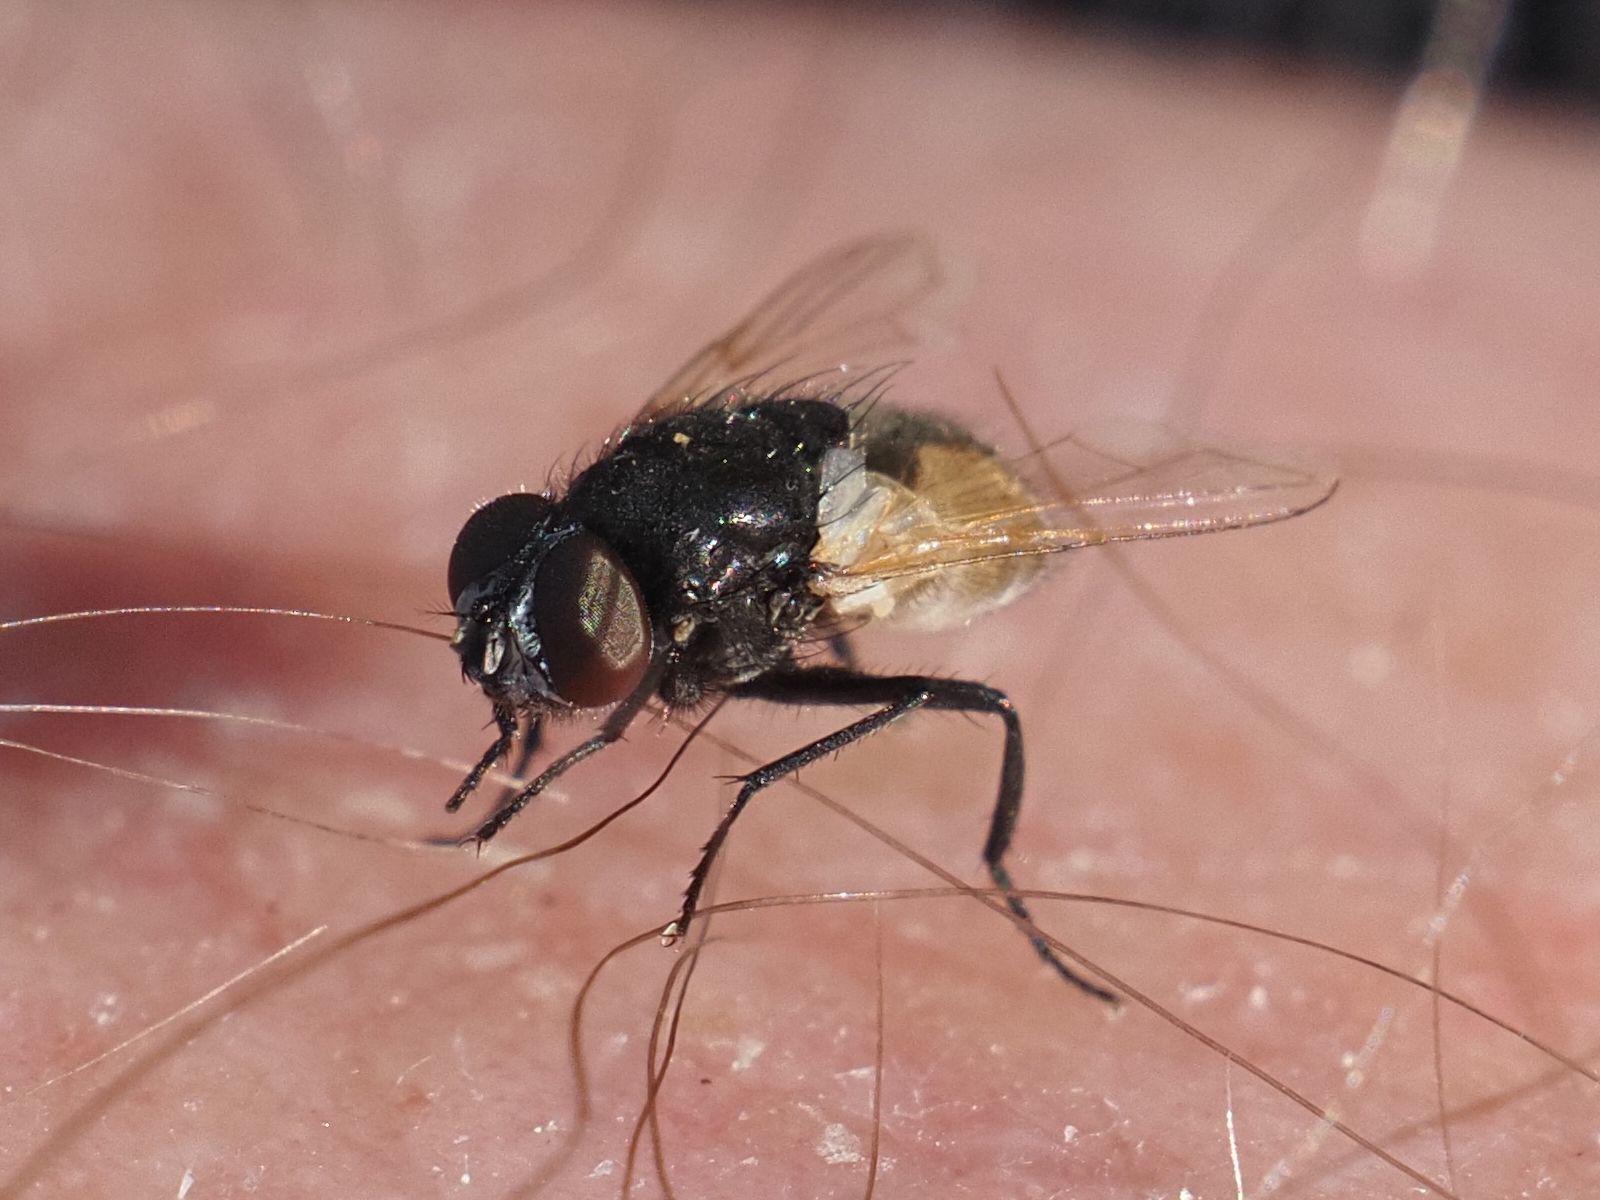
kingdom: Animalia
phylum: Arthropoda
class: Insecta
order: Diptera
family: Muscidae
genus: Musca
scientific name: Musca osiris
